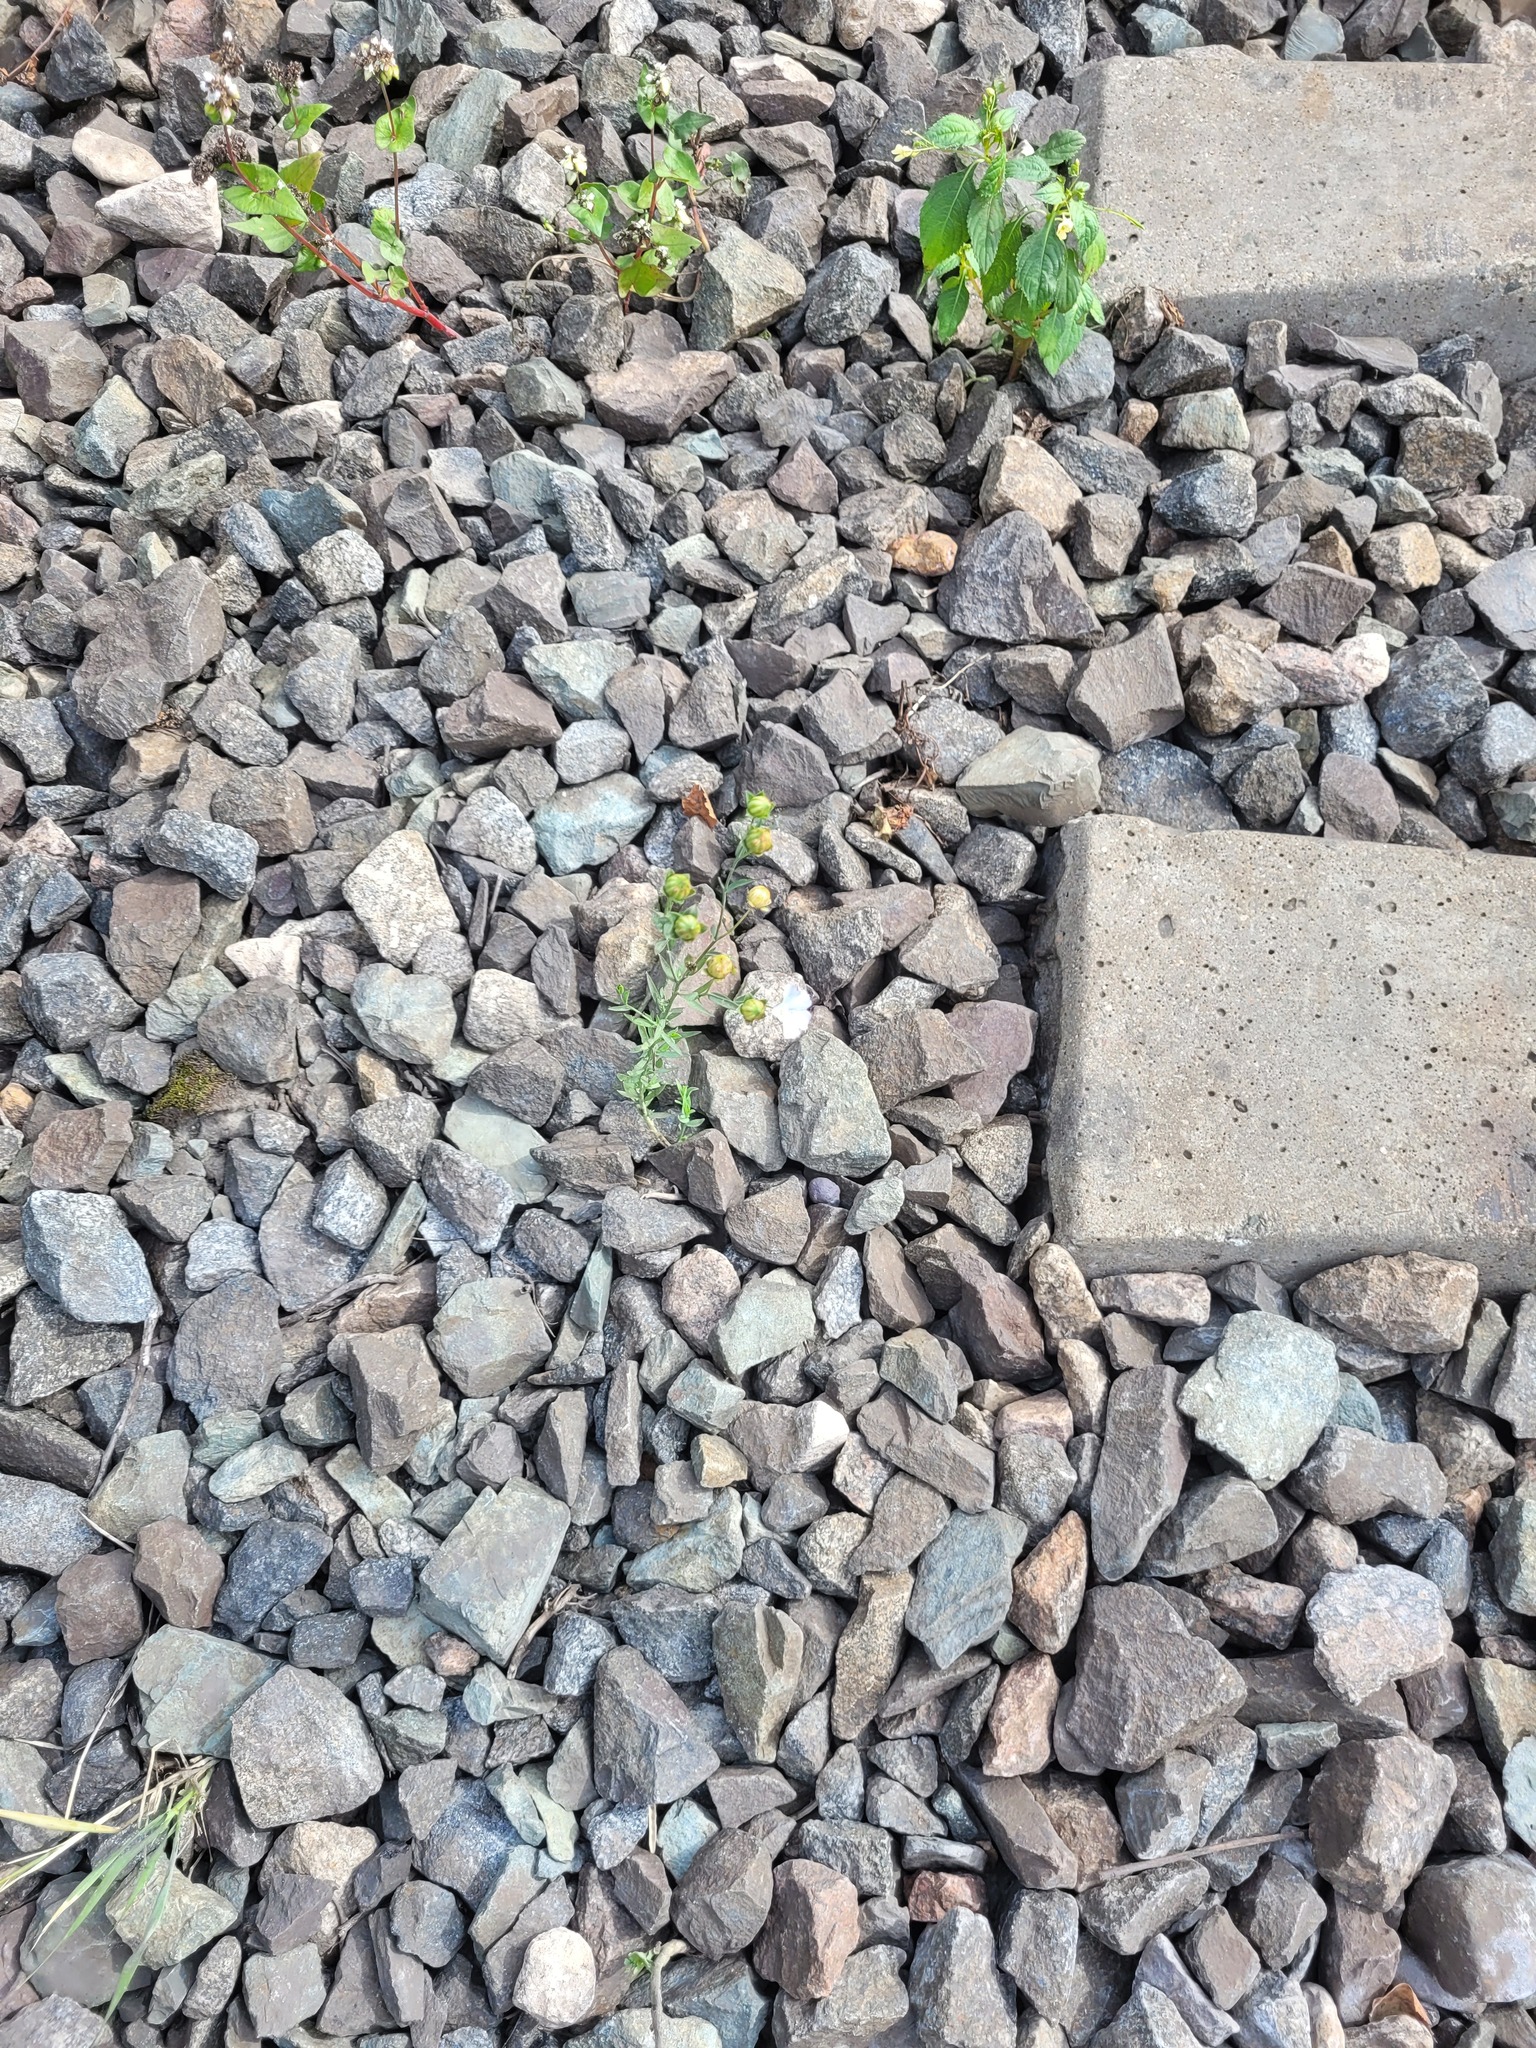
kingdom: Plantae
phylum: Tracheophyta
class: Magnoliopsida
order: Malpighiales
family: Linaceae
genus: Linum
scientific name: Linum usitatissimum
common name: Flax
